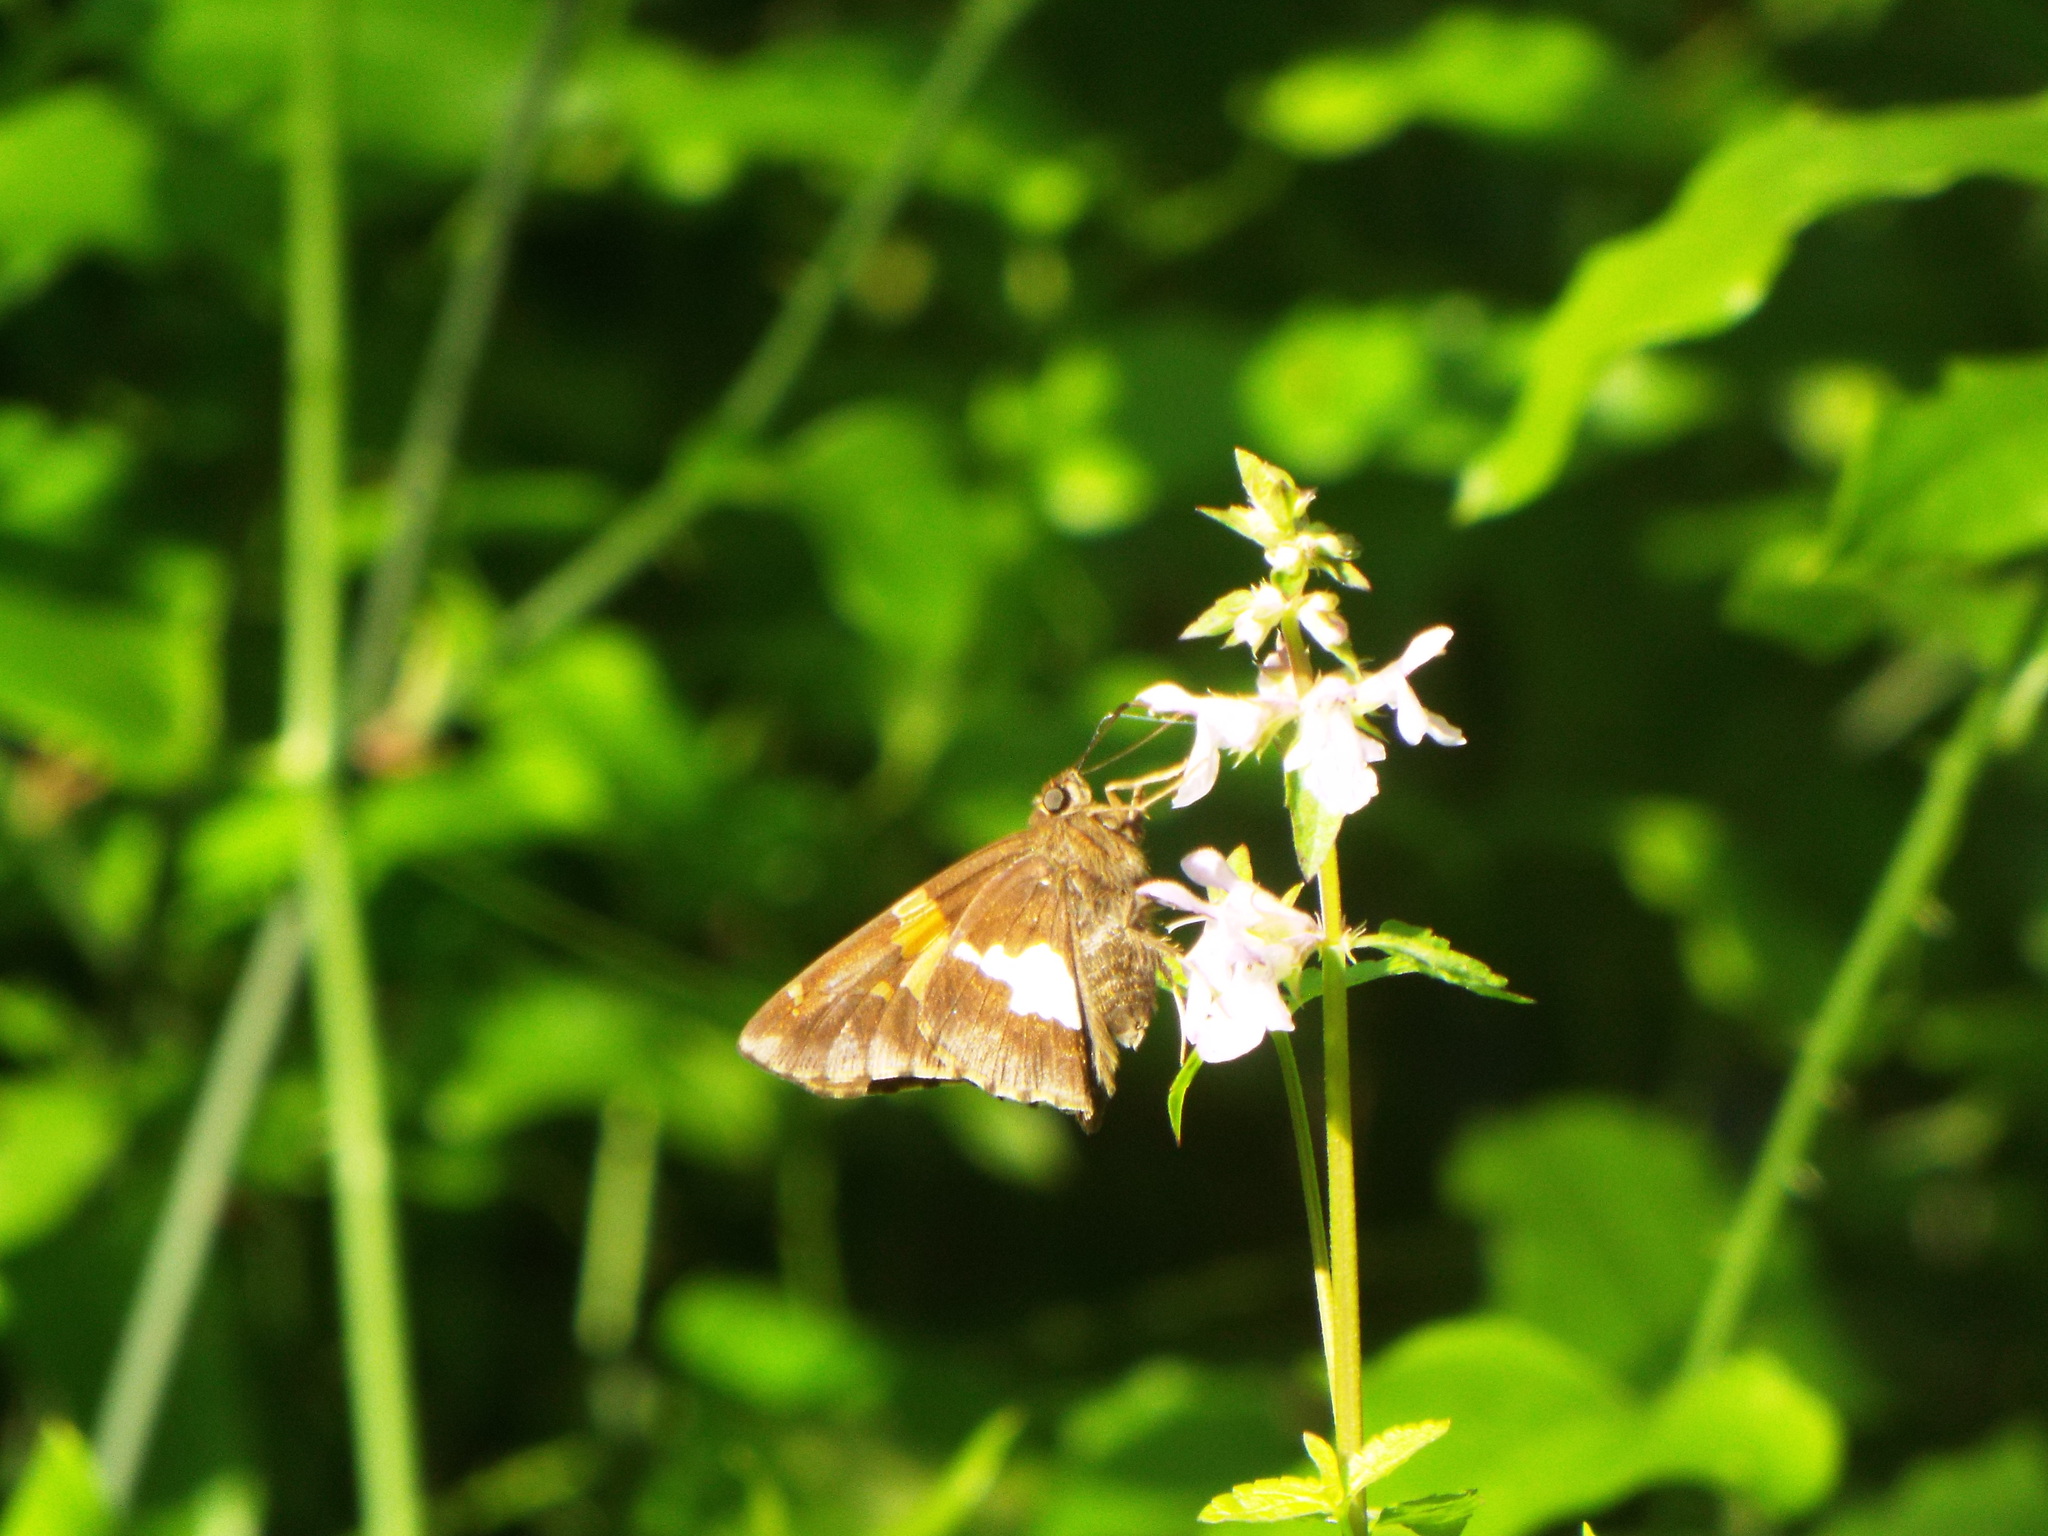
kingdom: Animalia
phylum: Arthropoda
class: Insecta
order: Lepidoptera
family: Hesperiidae
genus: Epargyreus
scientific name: Epargyreus clarus
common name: Silver-spotted skipper
